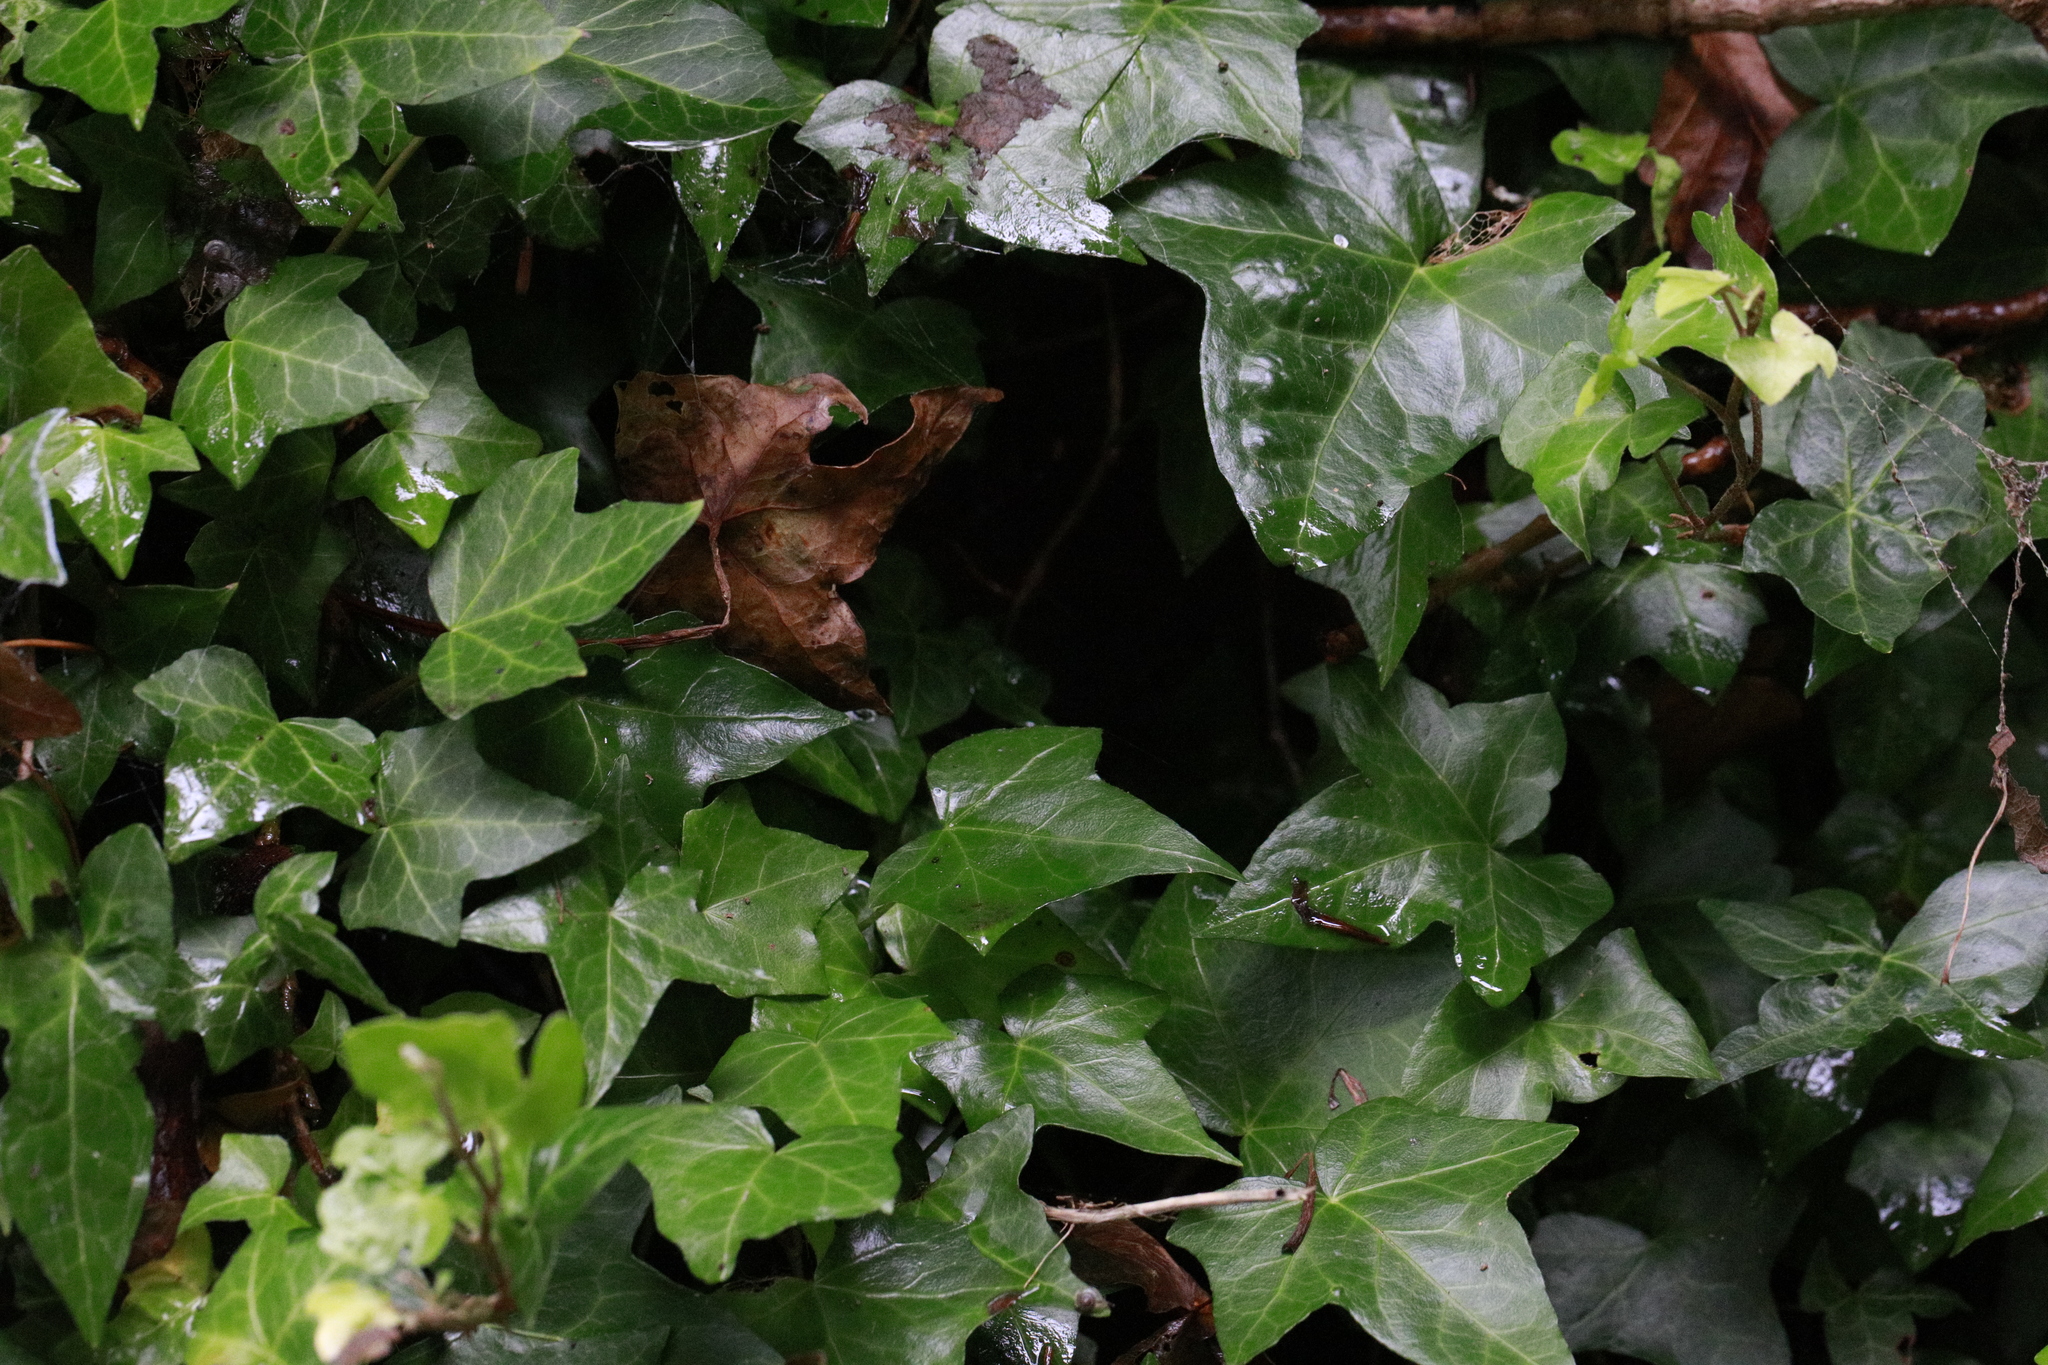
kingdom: Plantae
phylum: Tracheophyta
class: Magnoliopsida
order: Apiales
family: Araliaceae
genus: Hedera
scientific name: Hedera helix
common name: Ivy
